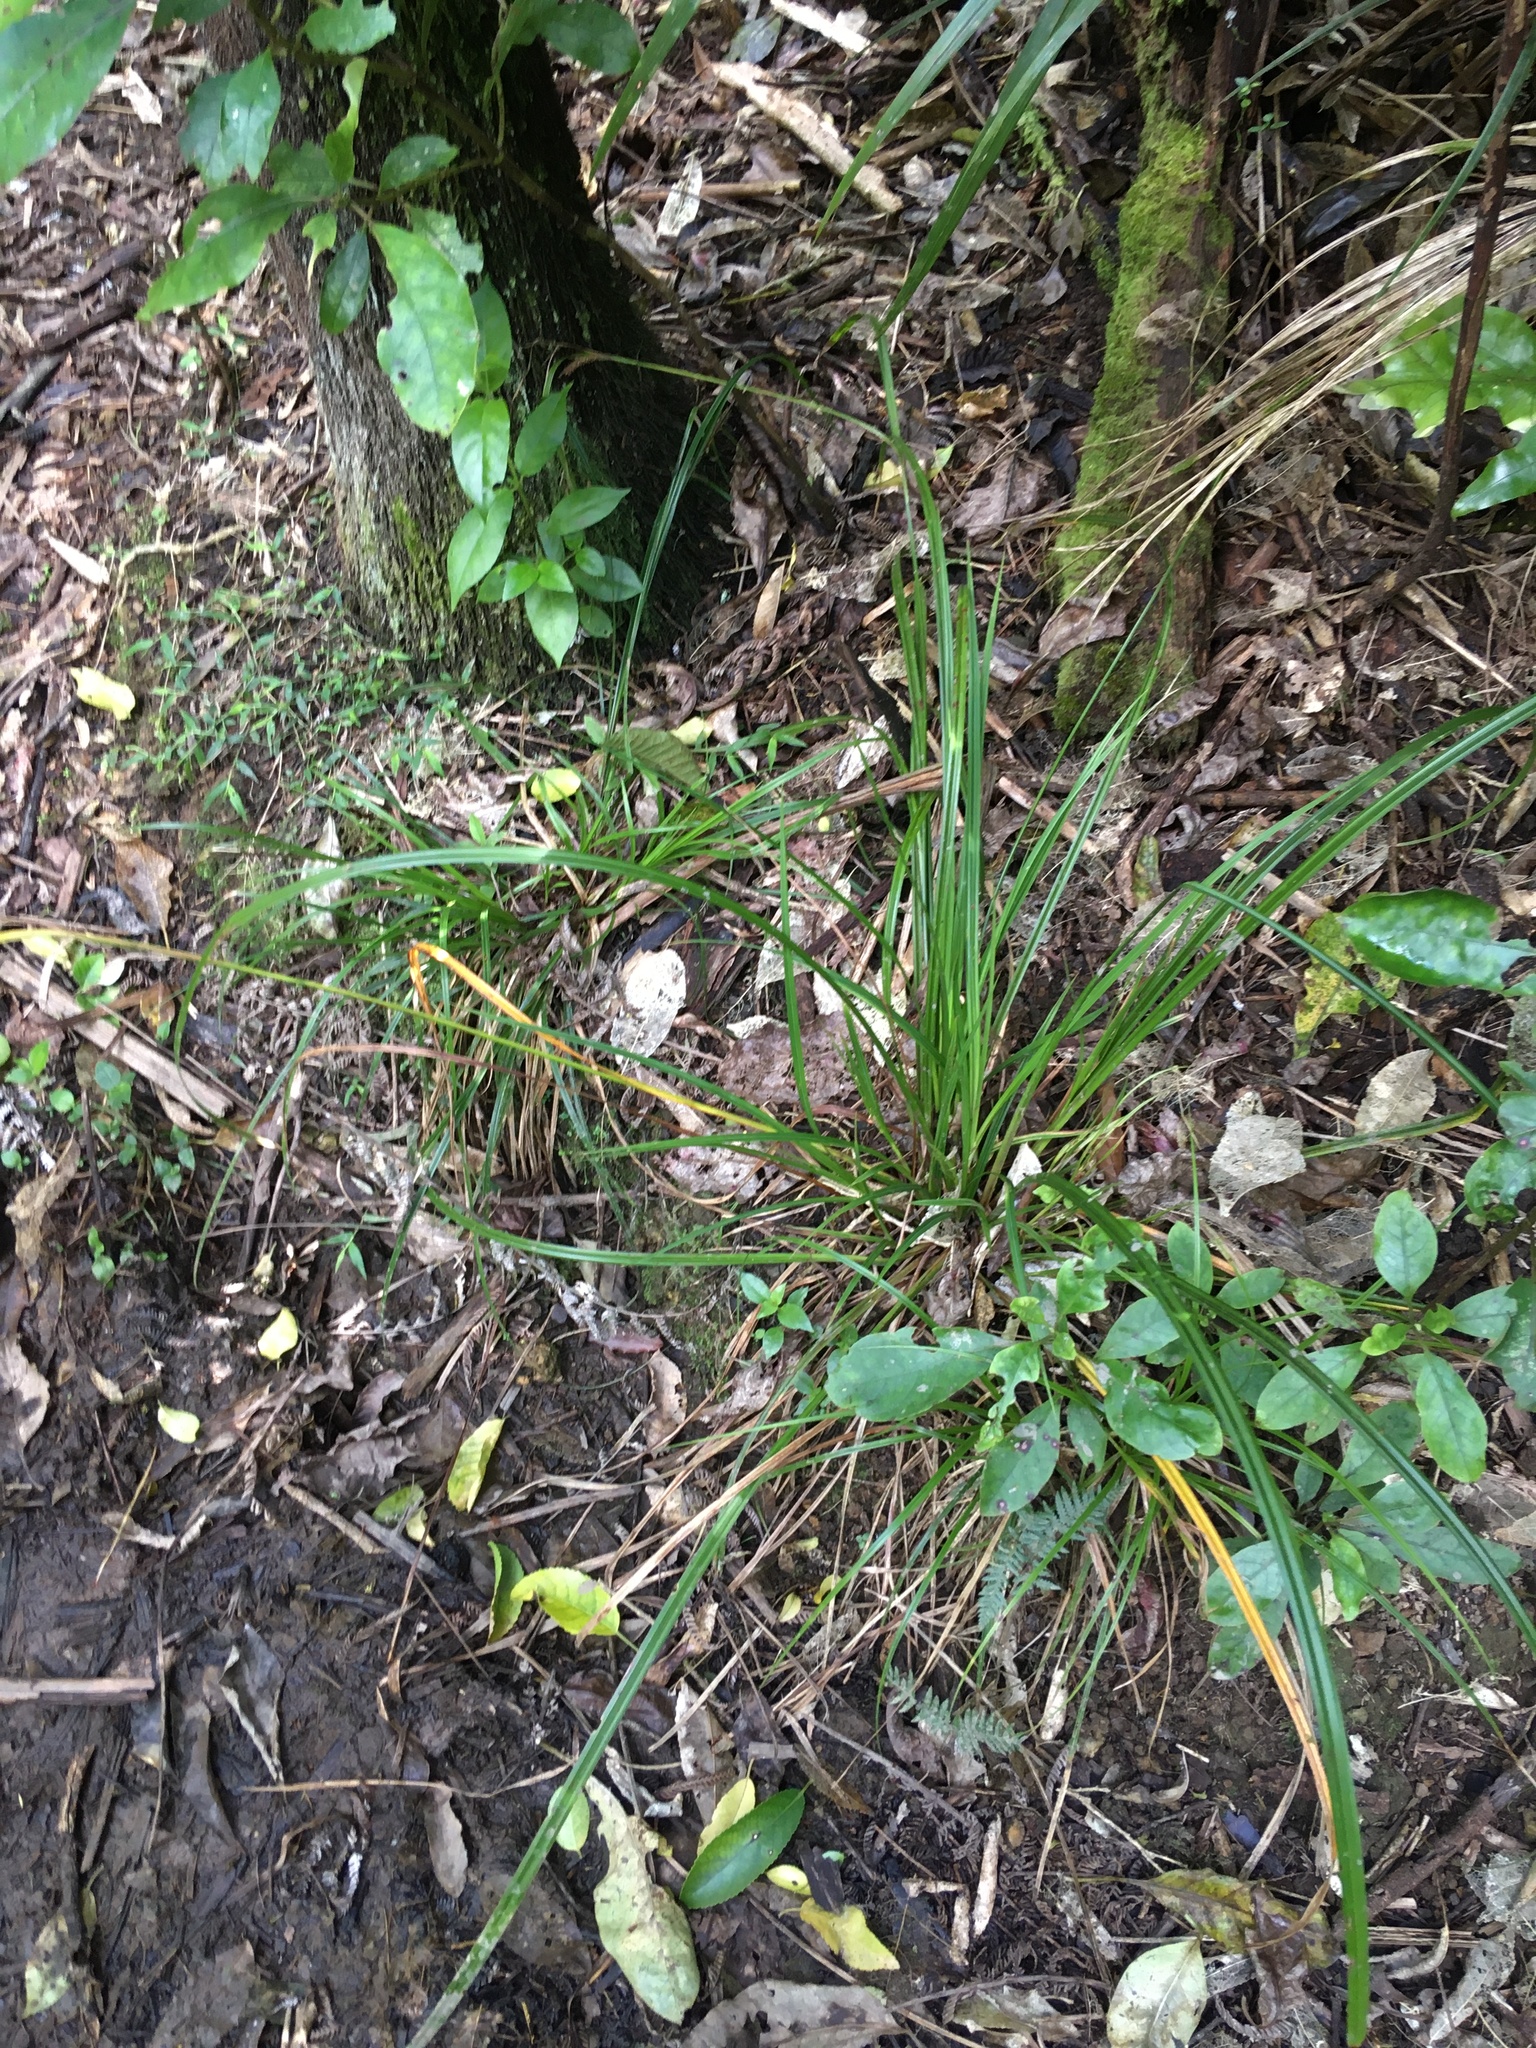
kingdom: Plantae
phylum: Tracheophyta
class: Liliopsida
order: Poales
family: Poaceae
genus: Oplismenus
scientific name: Oplismenus hirtellus
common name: Basketgrass
